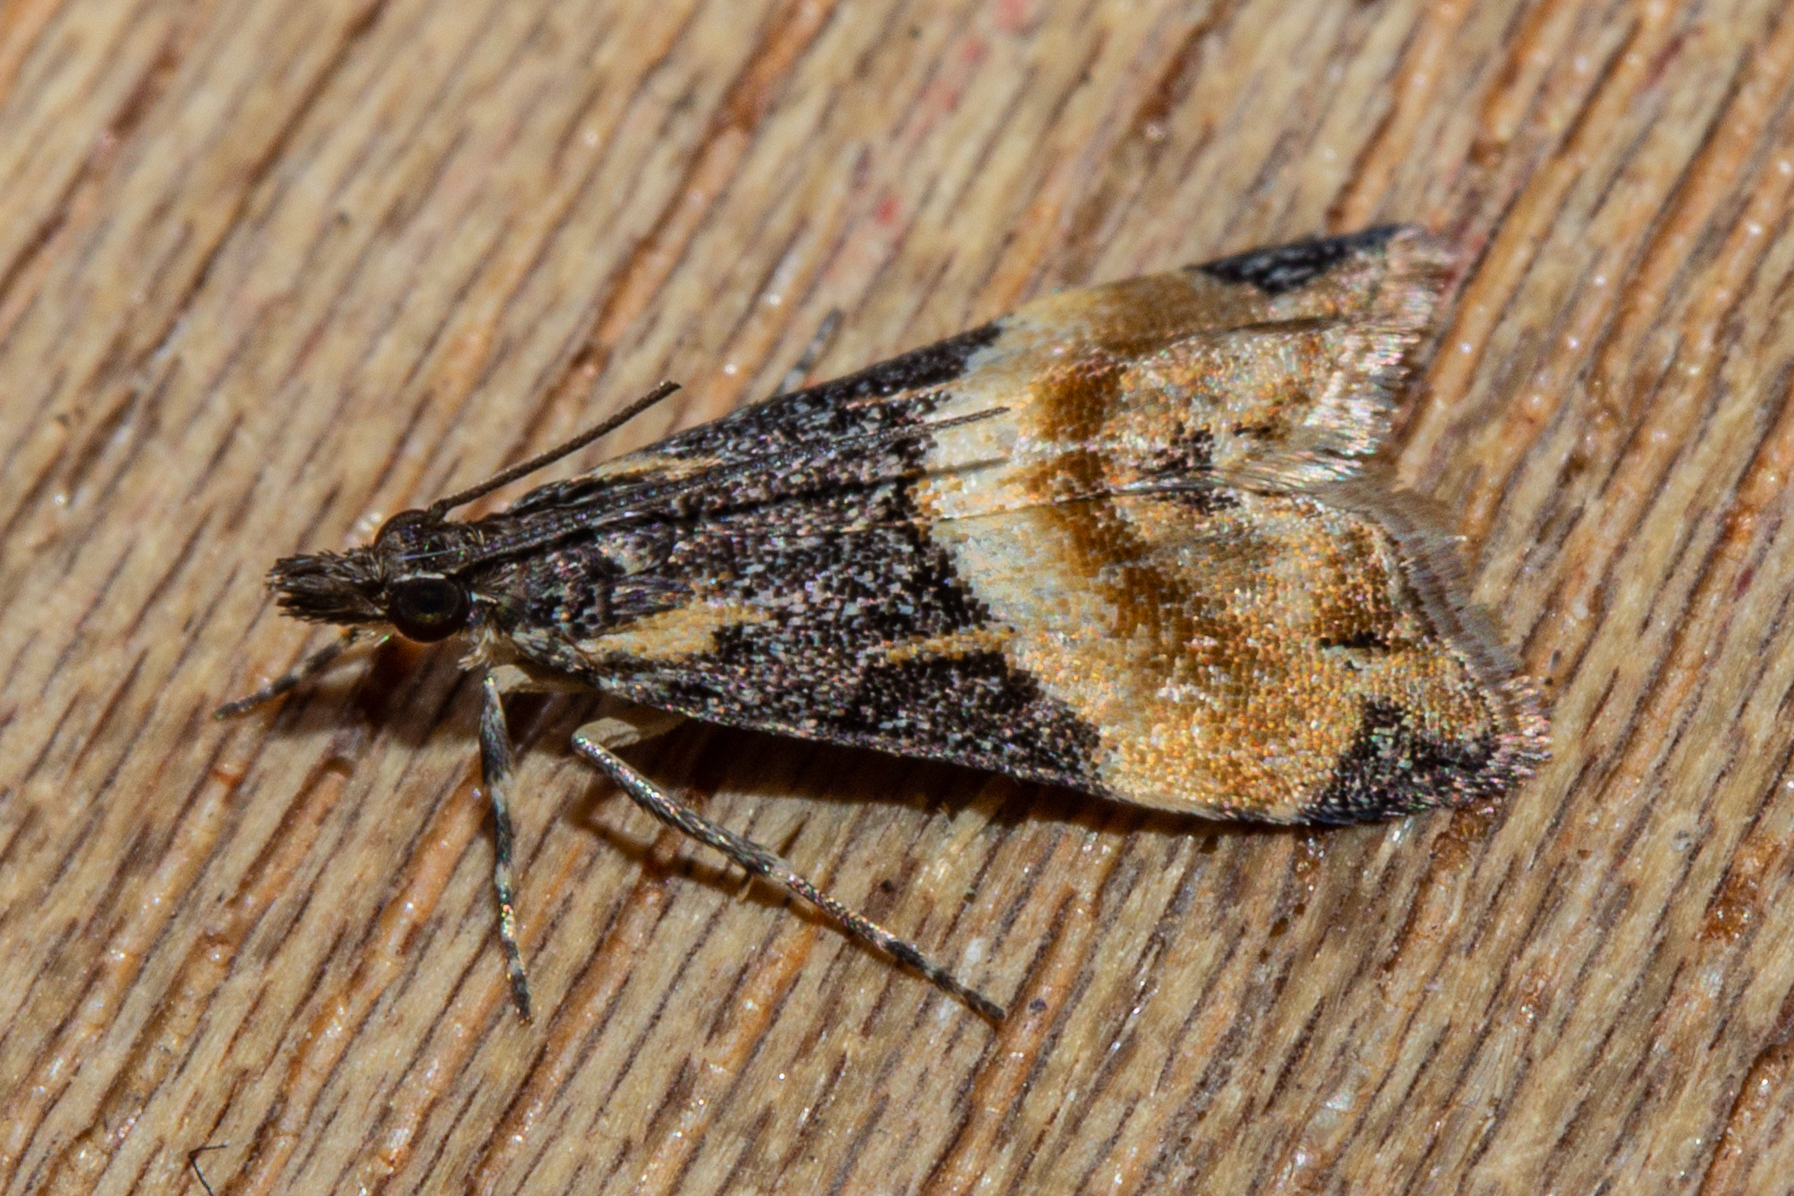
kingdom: Animalia
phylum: Arthropoda
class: Insecta
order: Lepidoptera
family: Crambidae
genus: Eudonia
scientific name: Eudonia chlamydota
